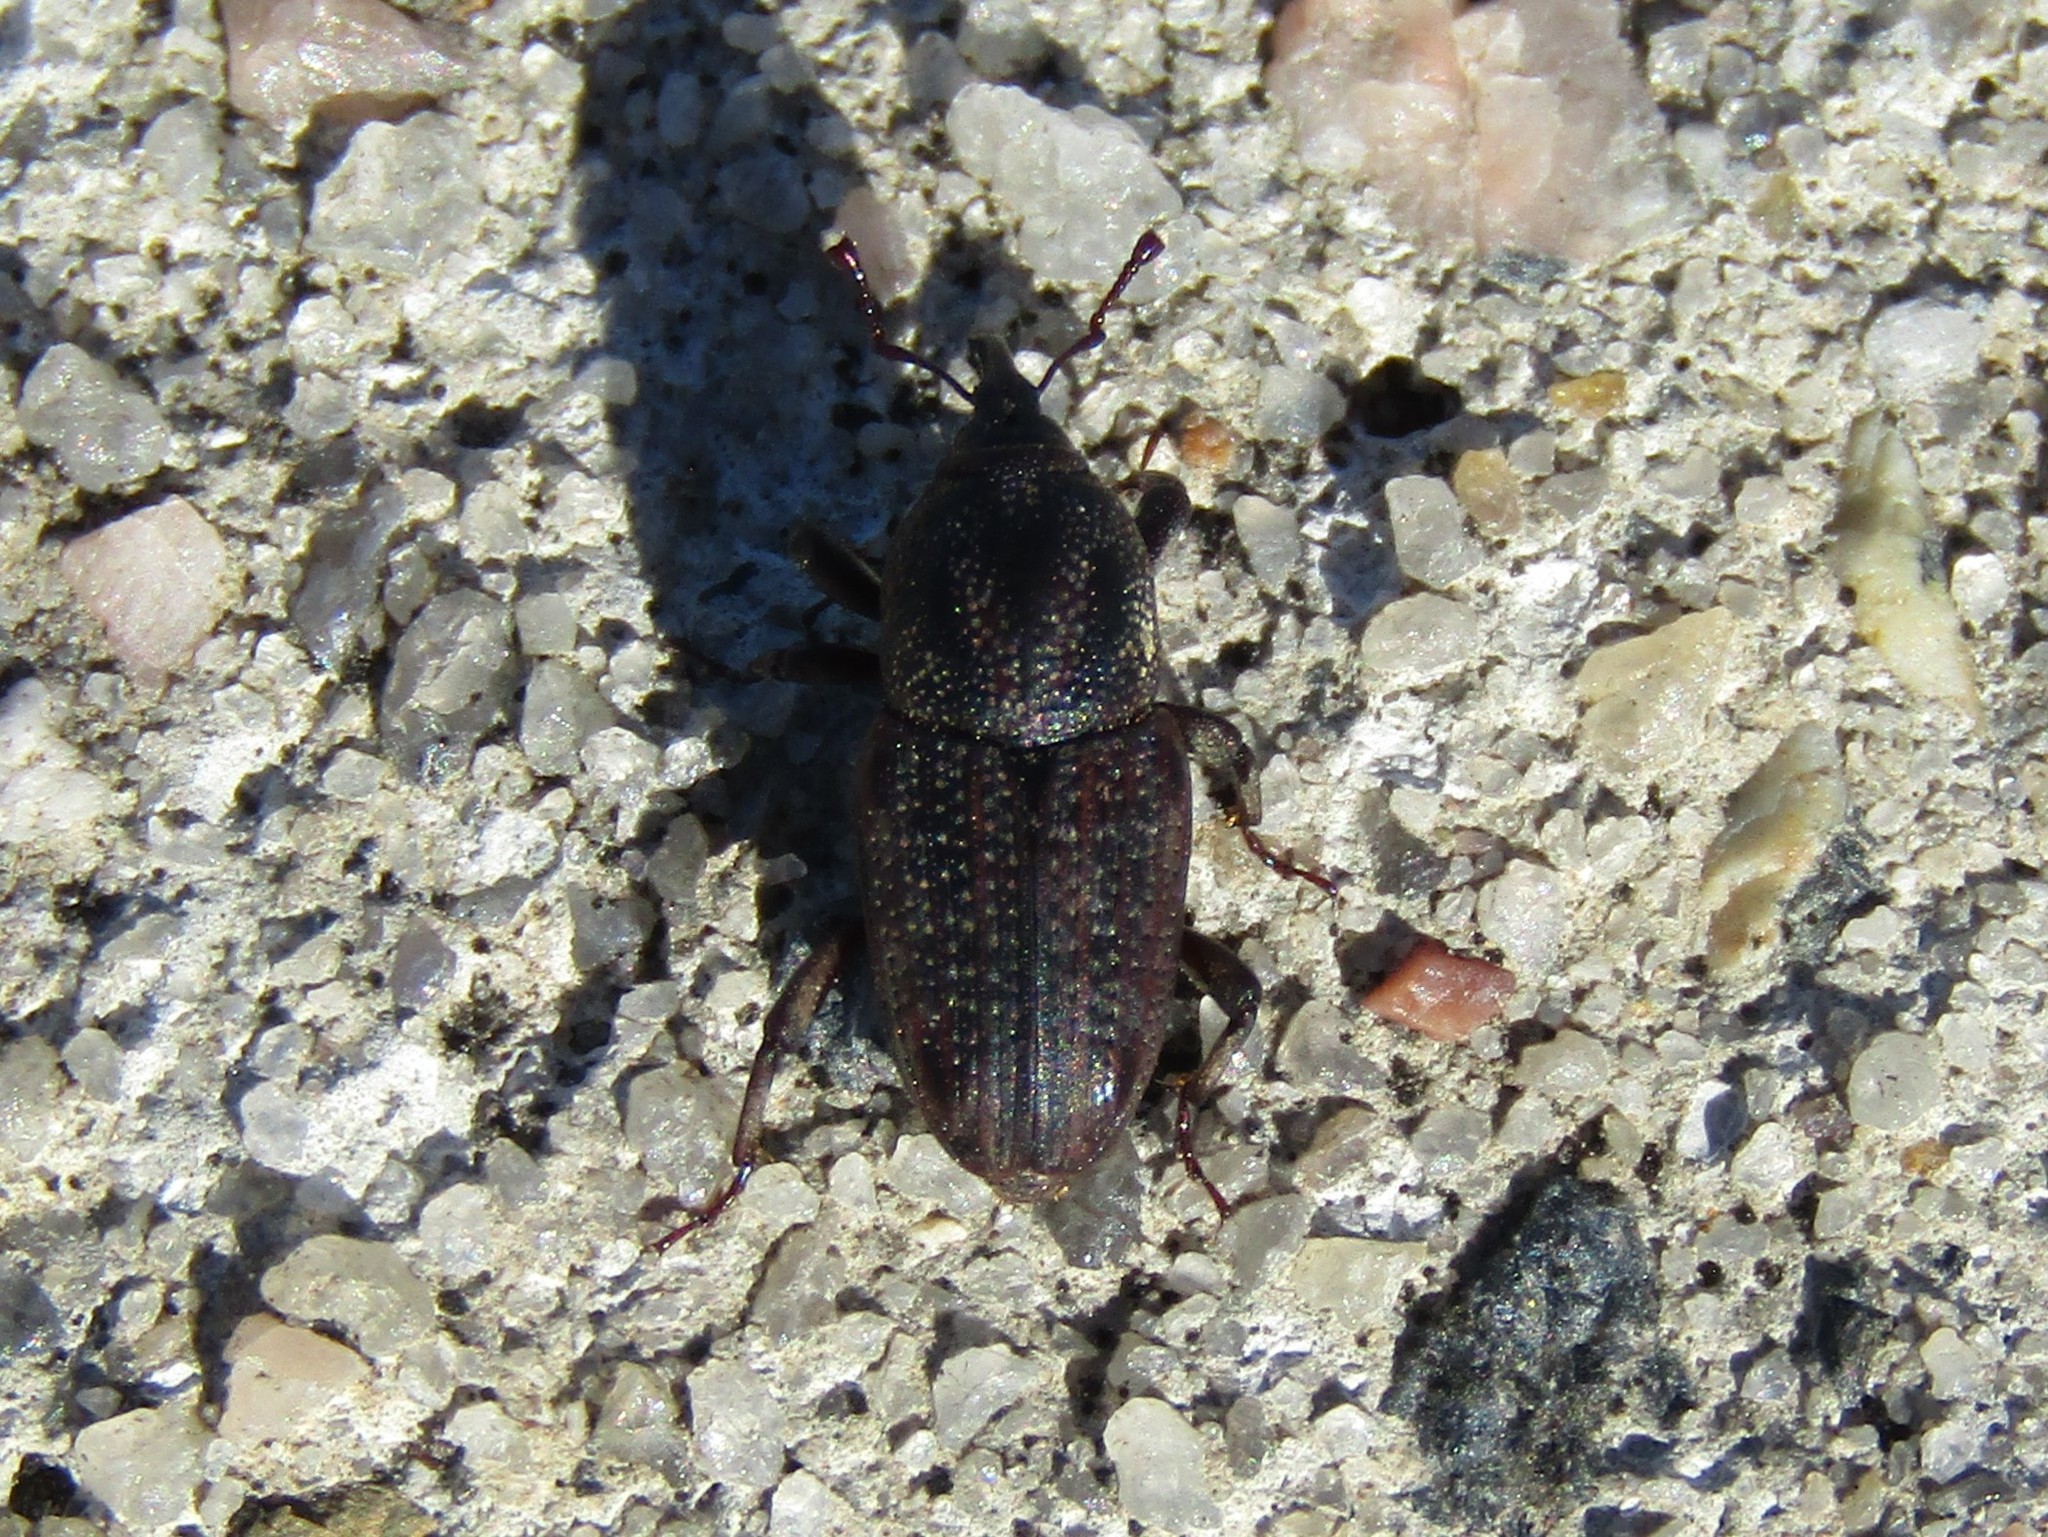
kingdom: Animalia
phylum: Arthropoda
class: Insecta
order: Coleoptera
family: Dryophthoridae
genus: Sphenophorus
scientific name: Sphenophorus rectus
